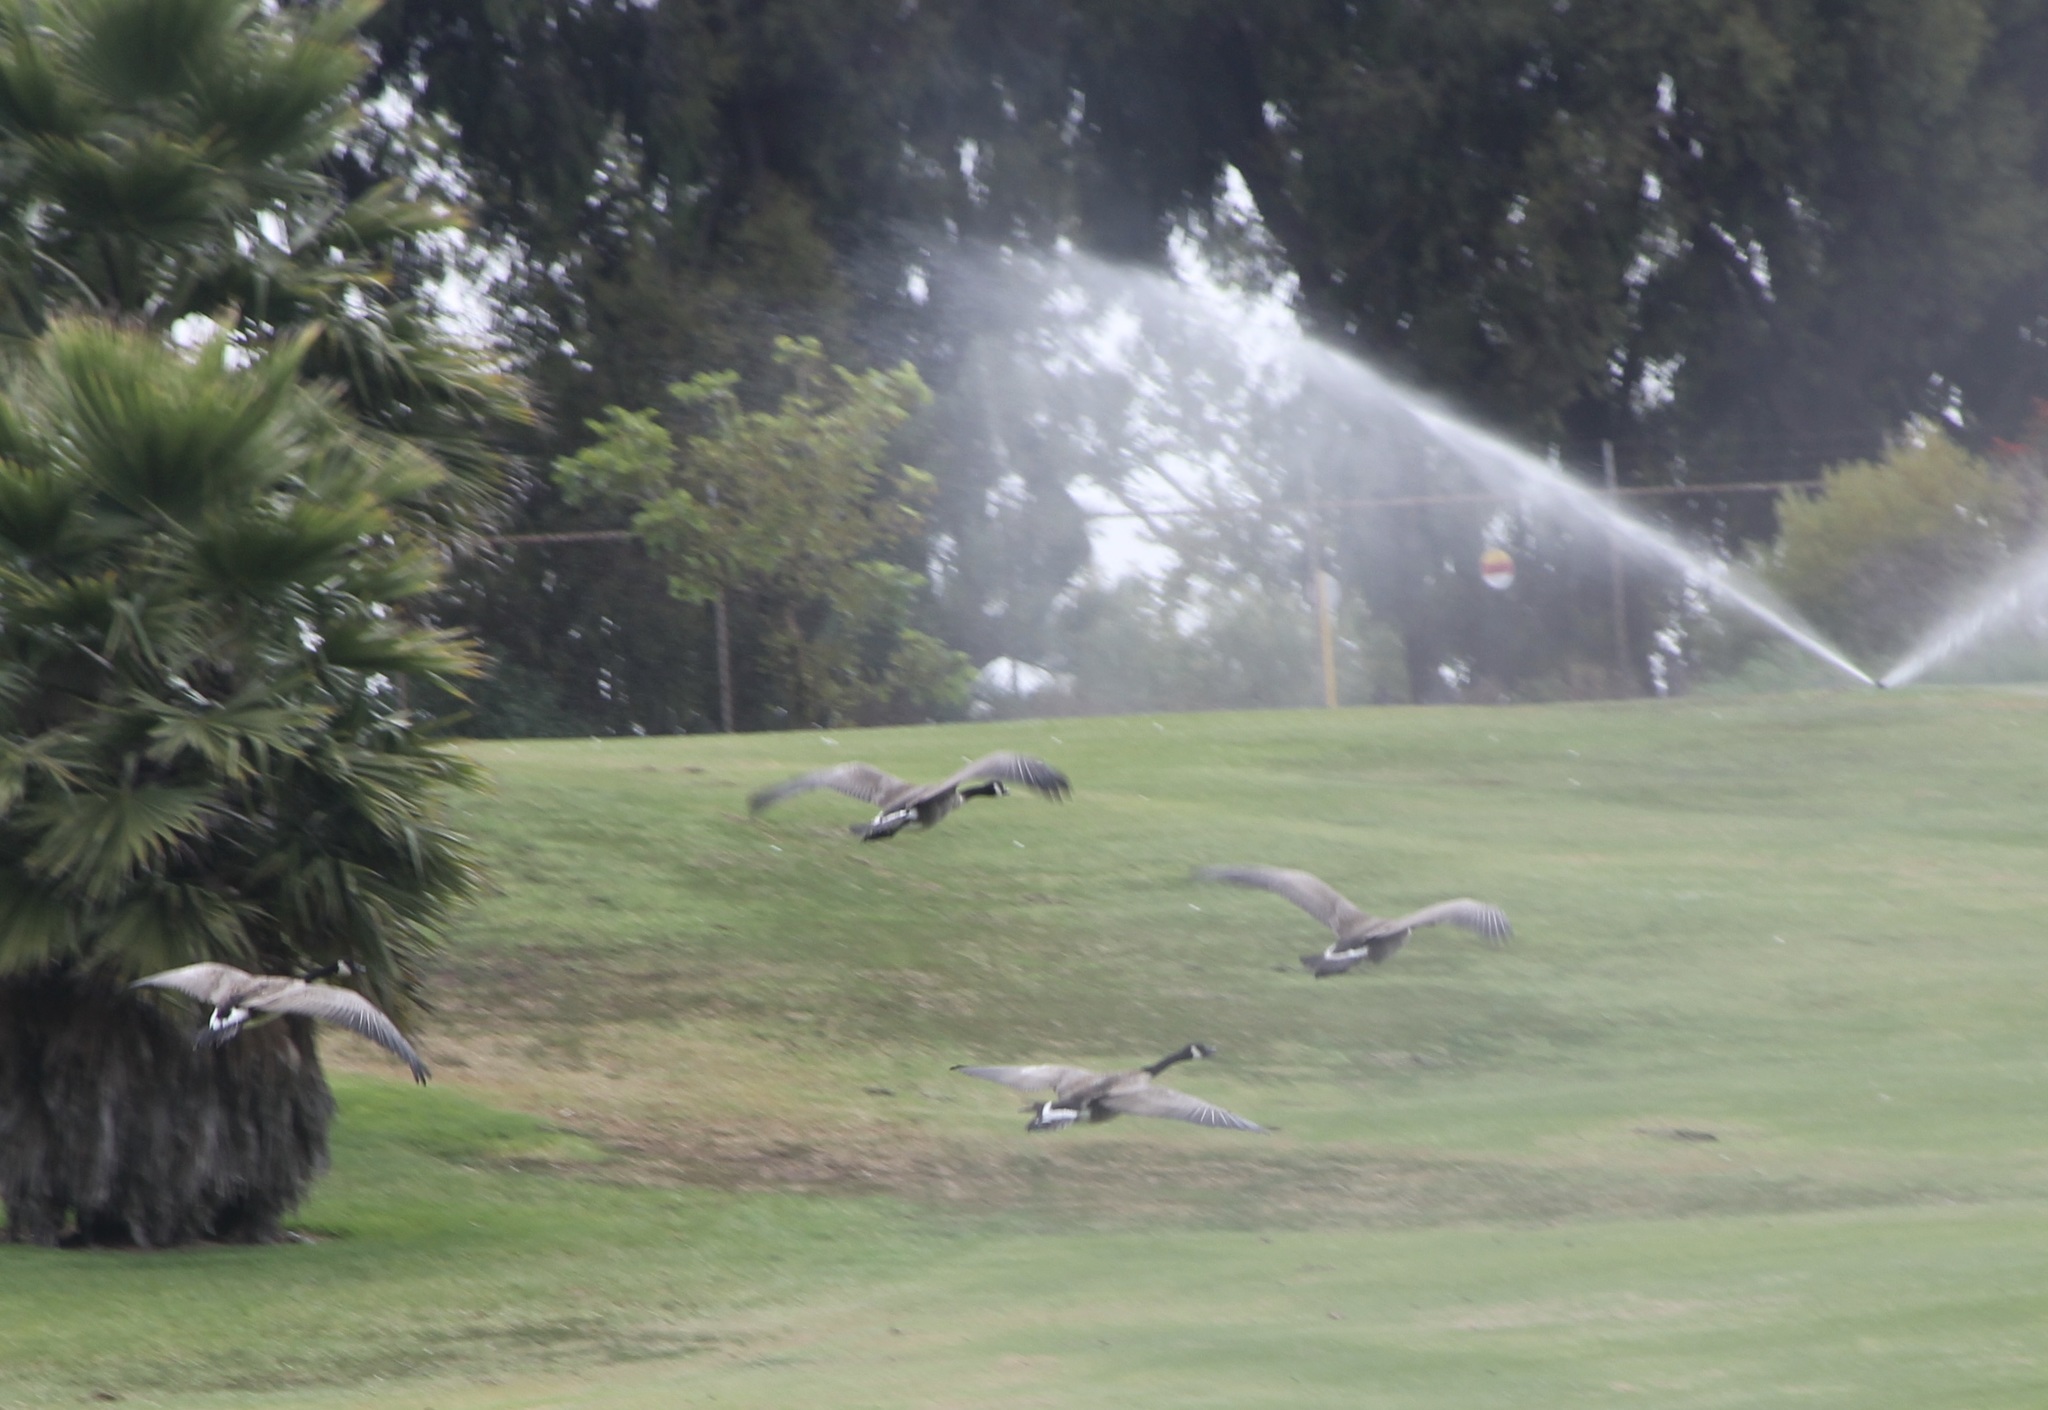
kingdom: Animalia
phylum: Chordata
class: Aves
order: Anseriformes
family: Anatidae
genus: Branta
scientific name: Branta canadensis
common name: Canada goose
